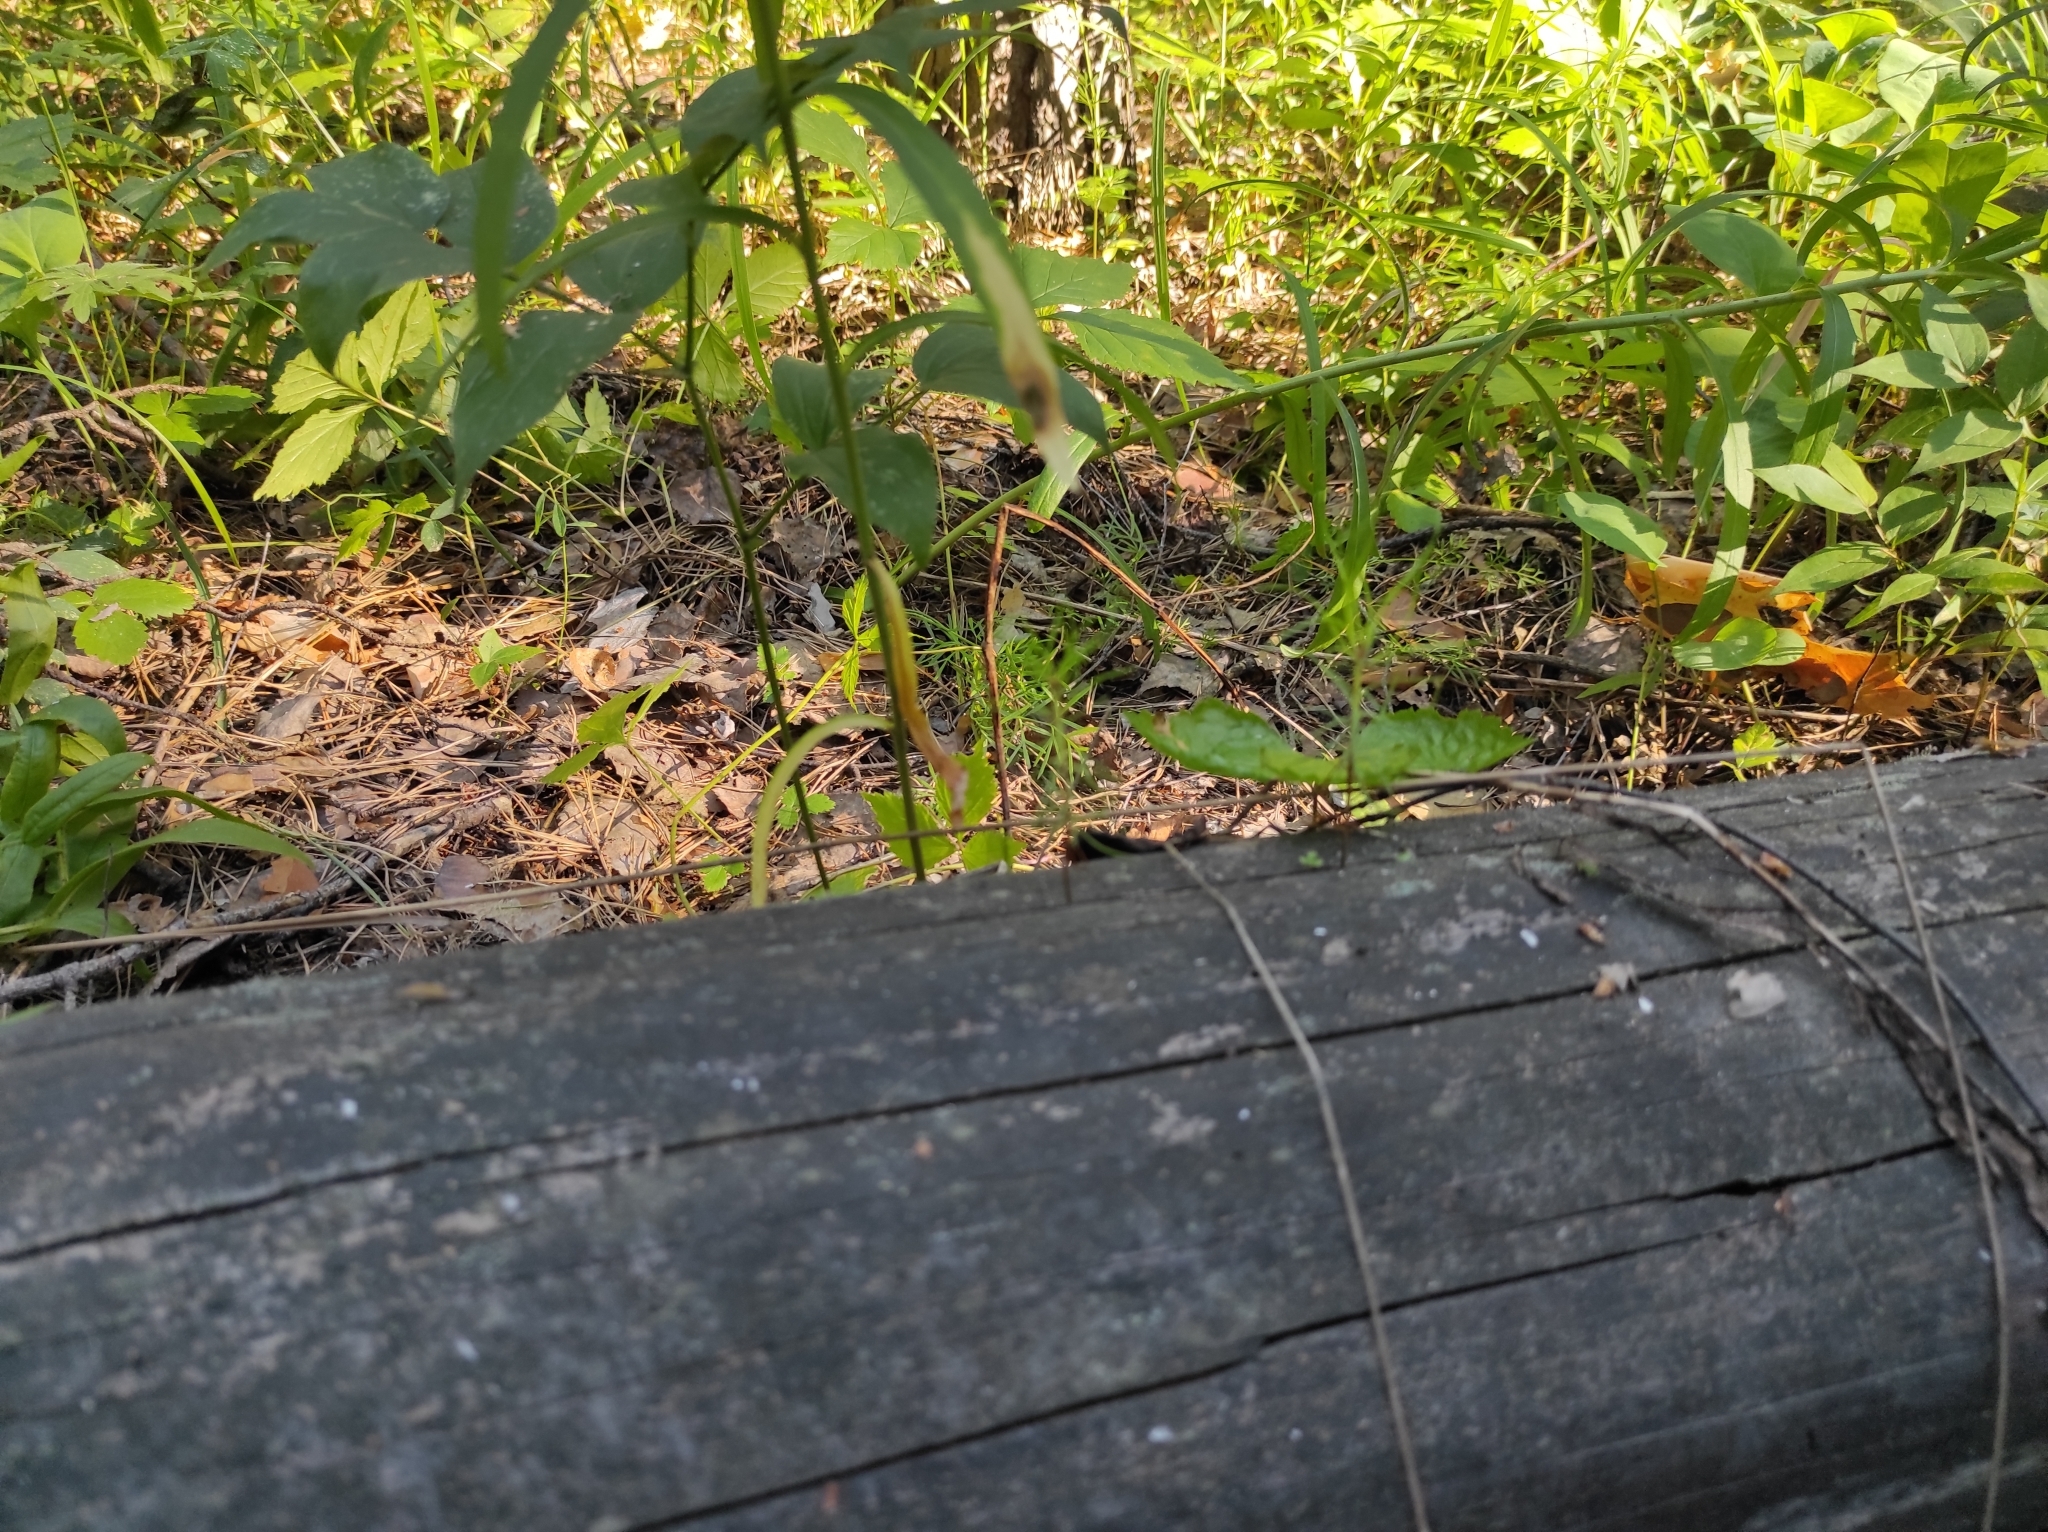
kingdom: Plantae
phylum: Tracheophyta
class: Pinopsida
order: Pinales
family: Pinaceae
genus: Pinus
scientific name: Pinus sylvestris
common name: Scots pine
